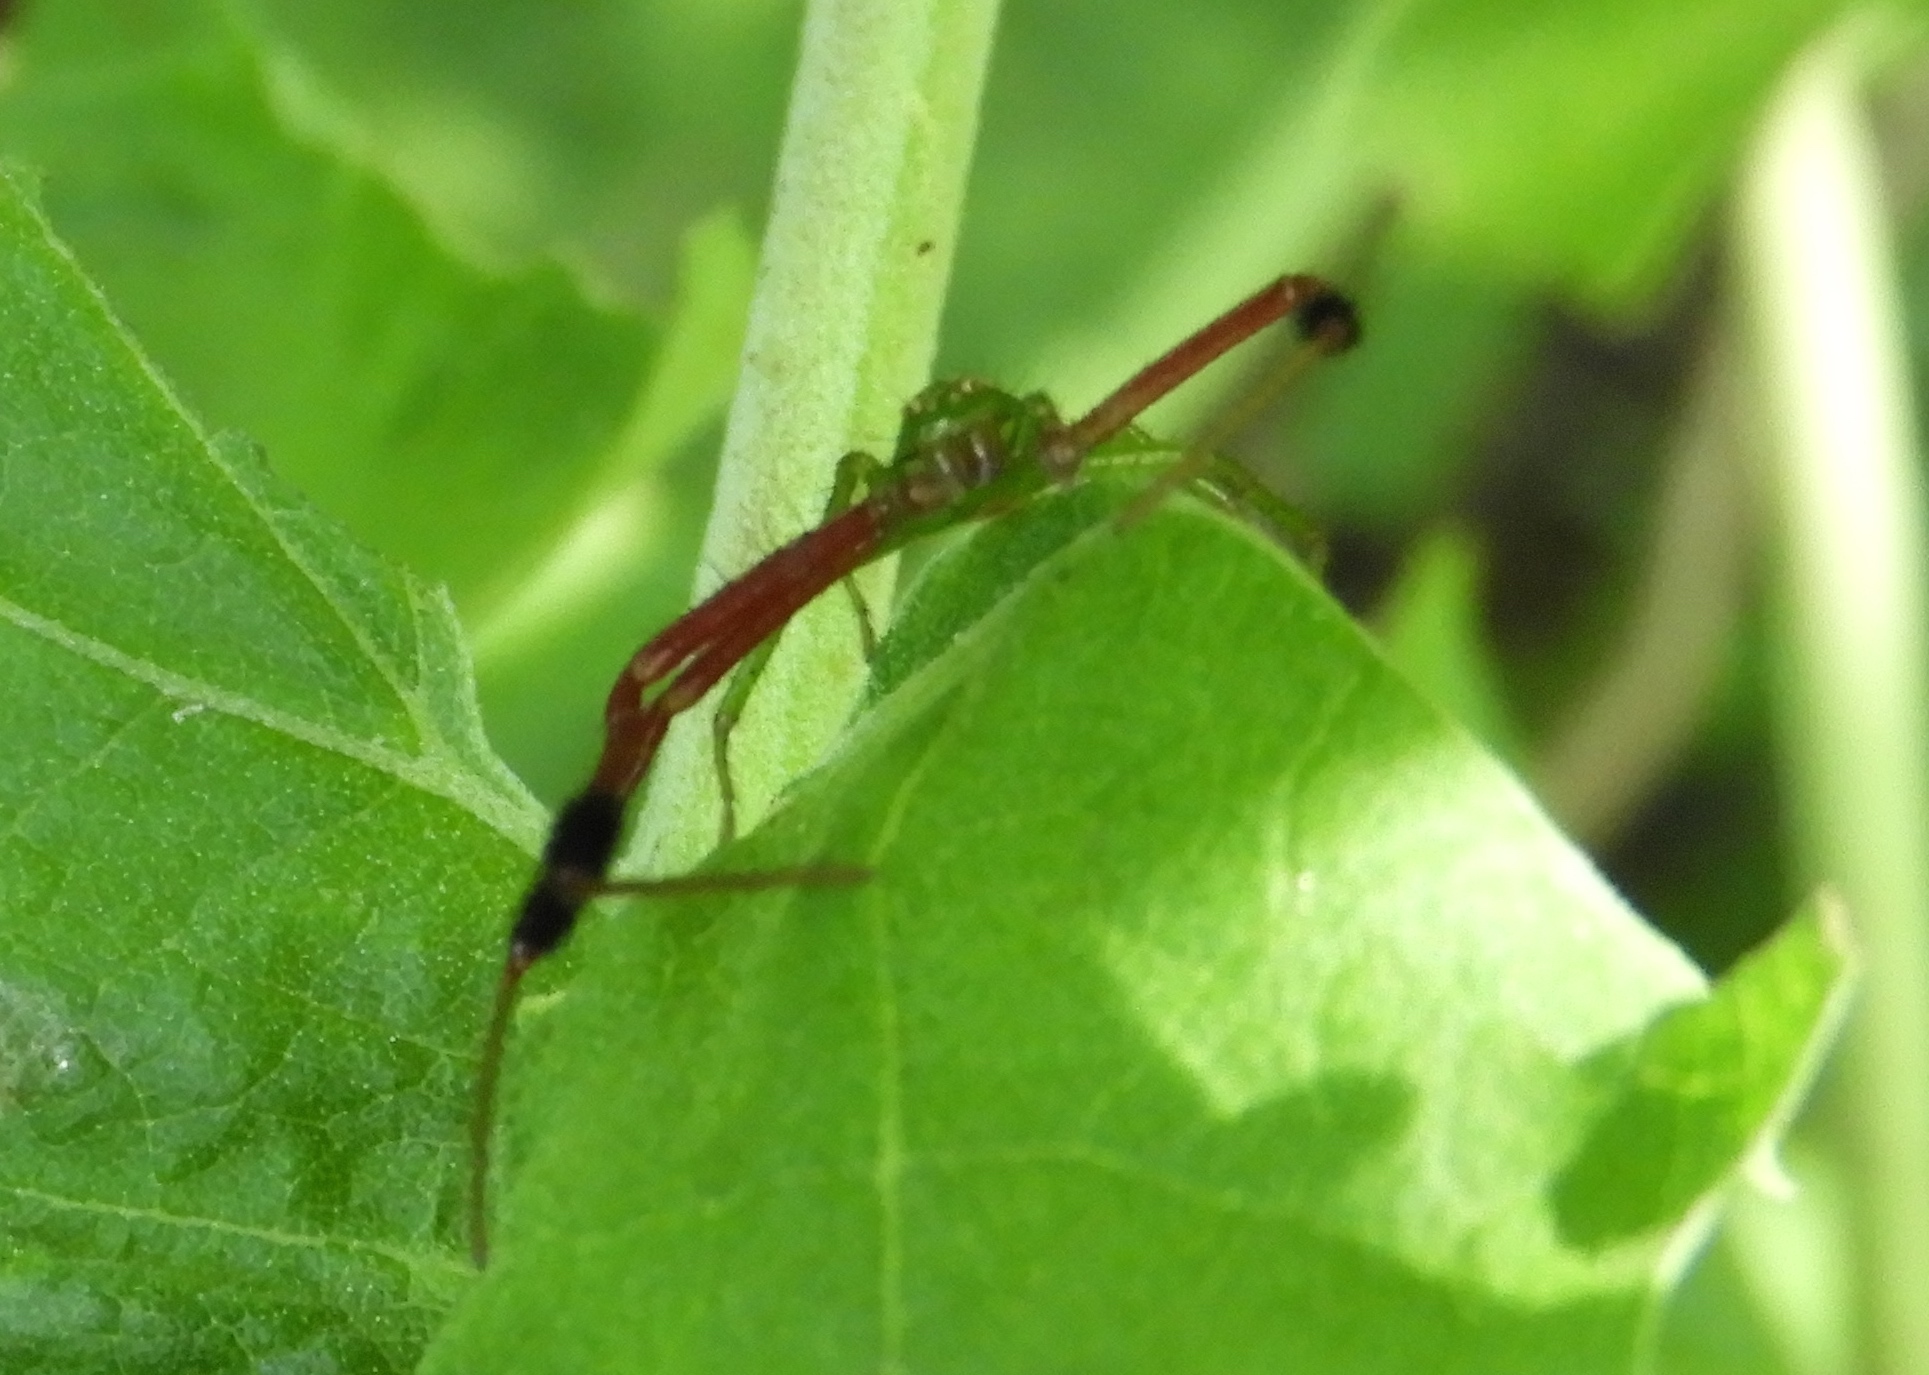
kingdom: Animalia
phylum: Arthropoda
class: Arachnida
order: Araneae
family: Thomisidae
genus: Parasynema
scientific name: Parasynema cirripes
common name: Crab spiders
